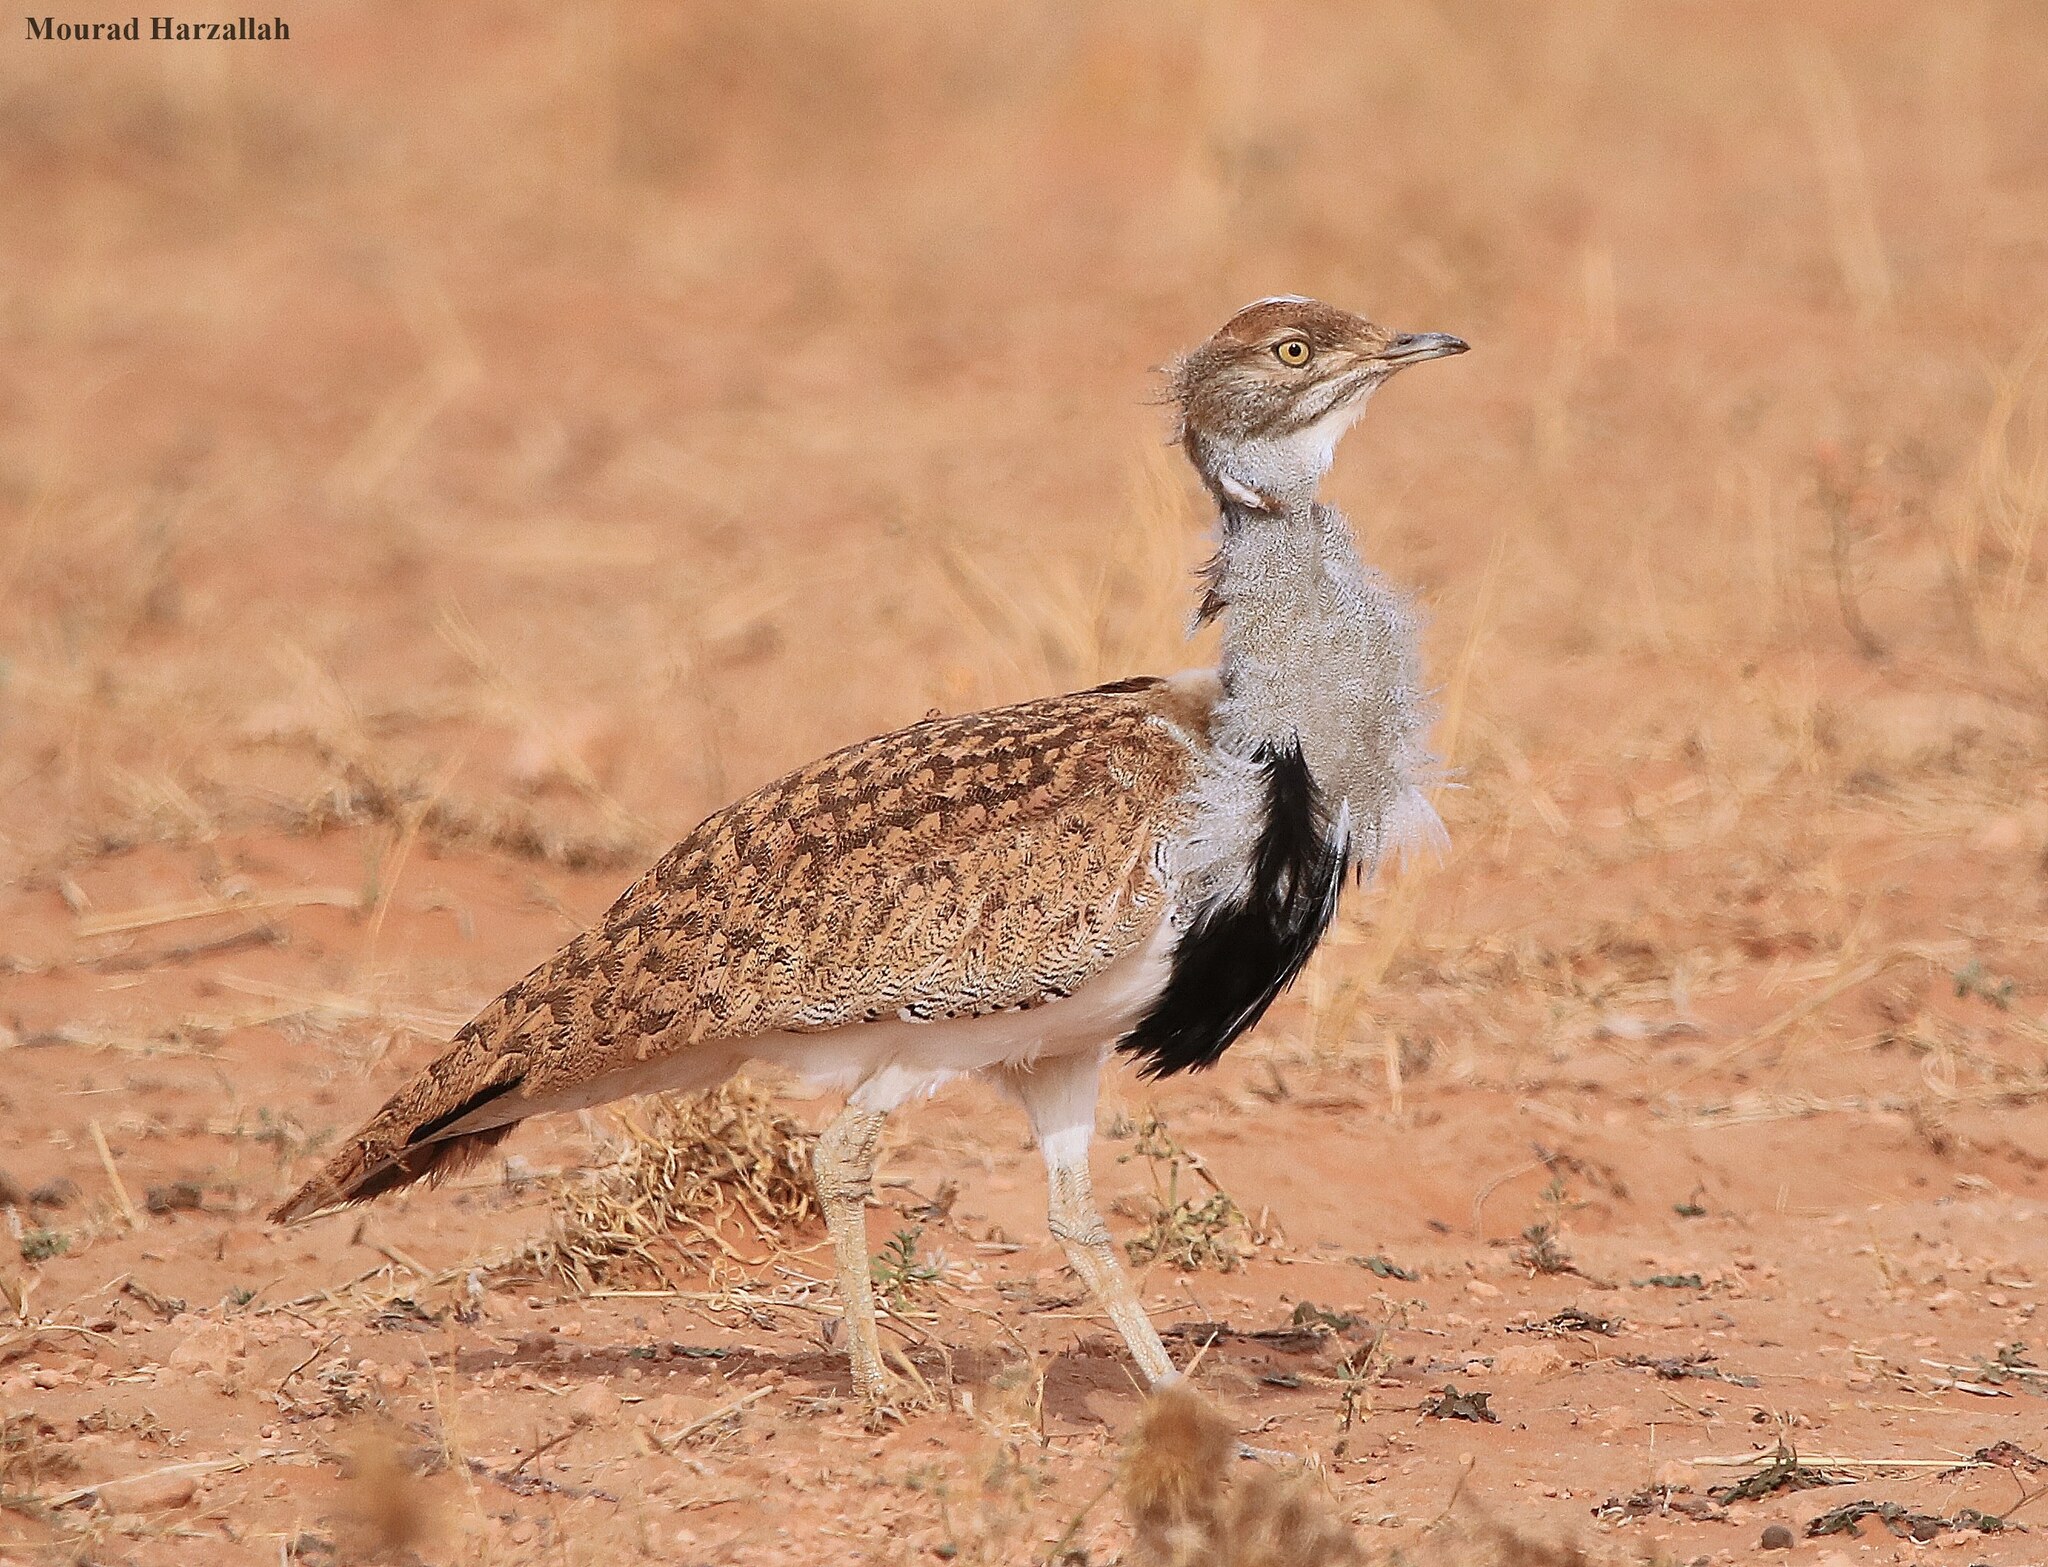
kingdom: Animalia
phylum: Chordata
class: Aves
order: Otidiformes
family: Otididae
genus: Chlamydotis
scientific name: Chlamydotis undulata
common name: Houbara bustard
